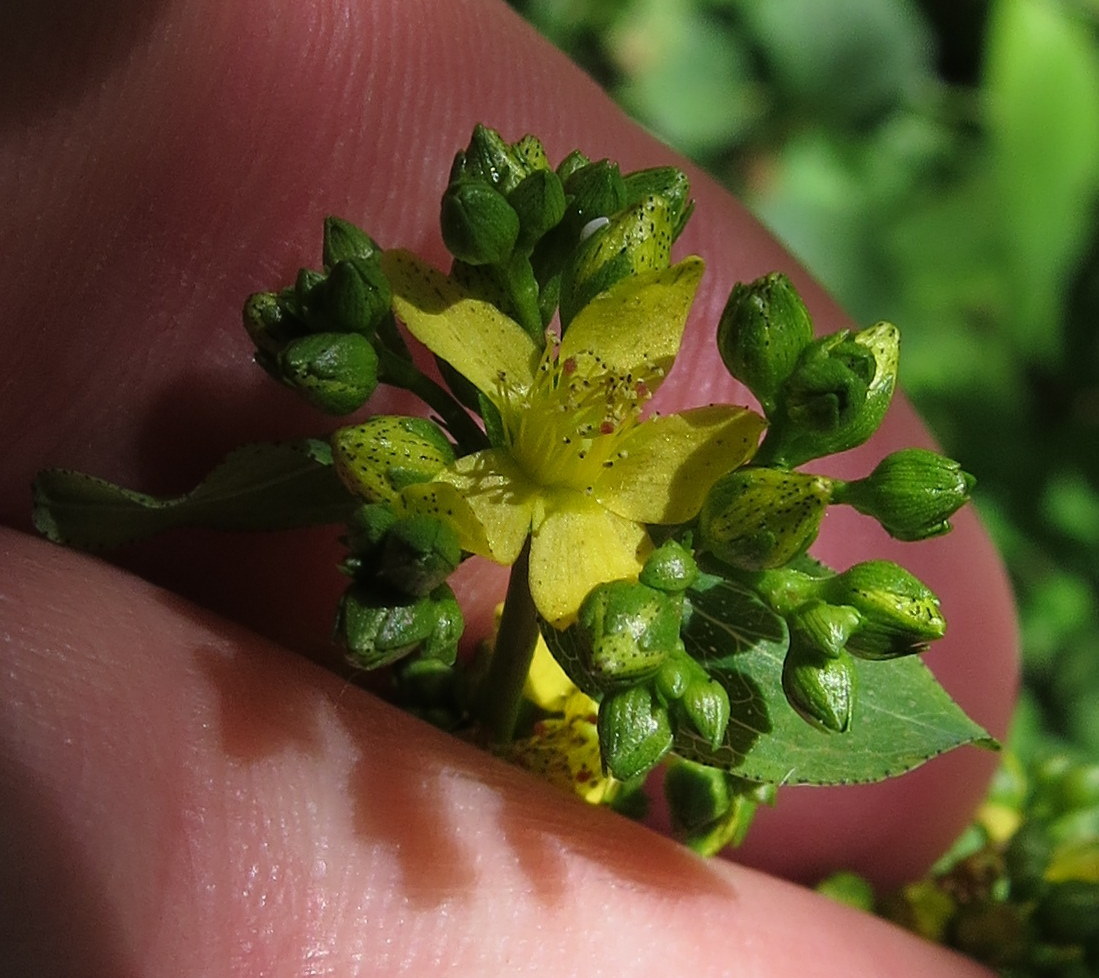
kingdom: Plantae
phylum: Tracheophyta
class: Magnoliopsida
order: Malpighiales
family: Hypericaceae
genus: Hypericum
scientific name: Hypericum punctatum
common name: Spotted st. john's-wort
